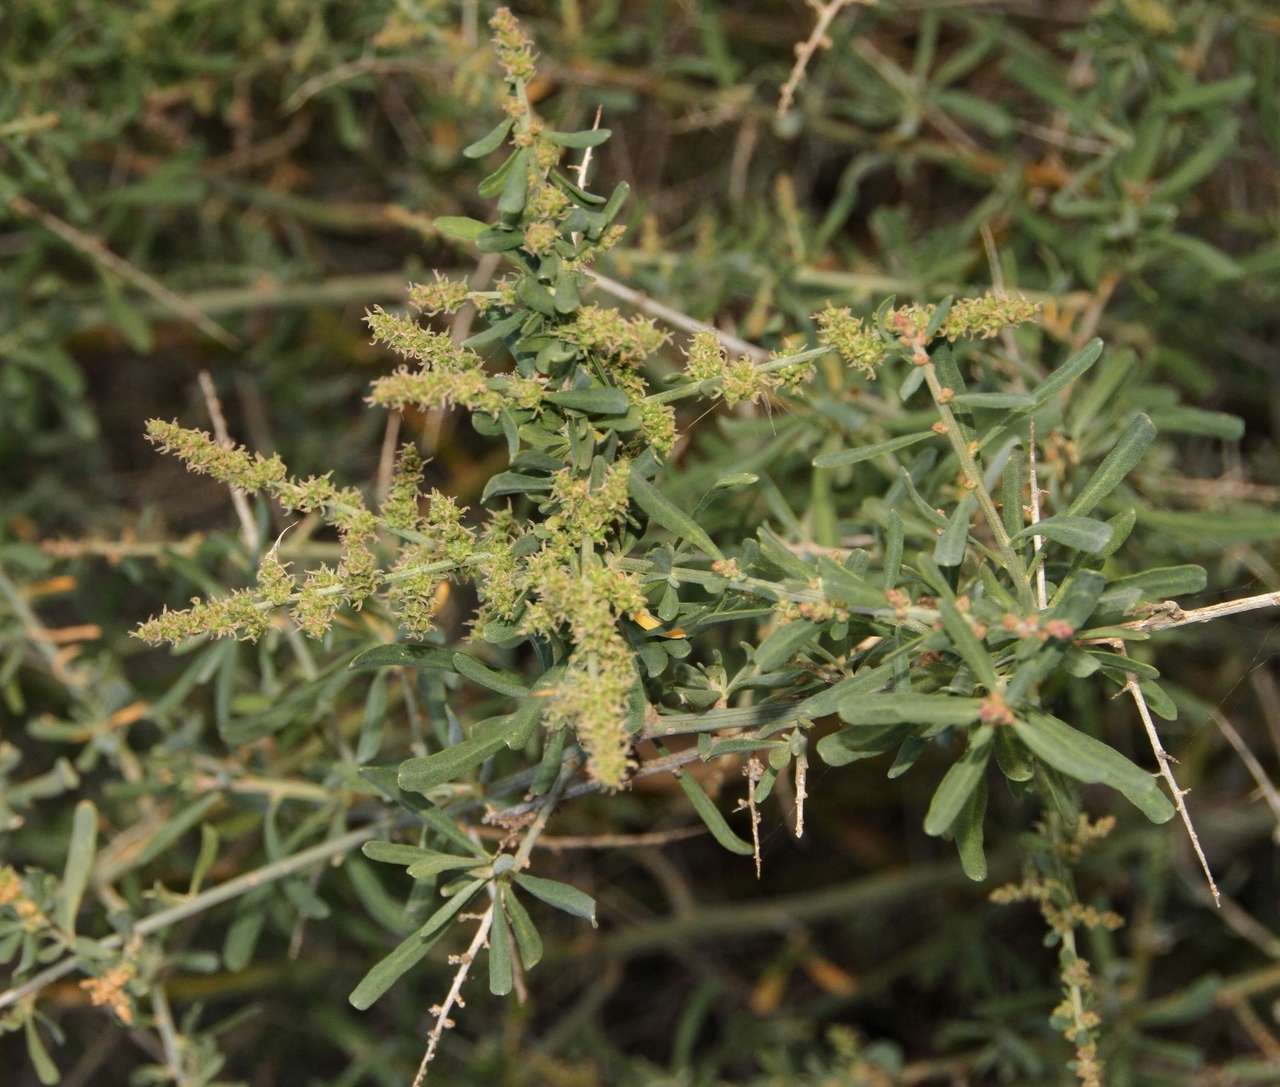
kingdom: Plantae
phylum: Tracheophyta
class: Magnoliopsida
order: Caryophyllales
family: Amaranthaceae
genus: Chenopodium
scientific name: Chenopodium nitrariaceum
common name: Nitre goosefoot
